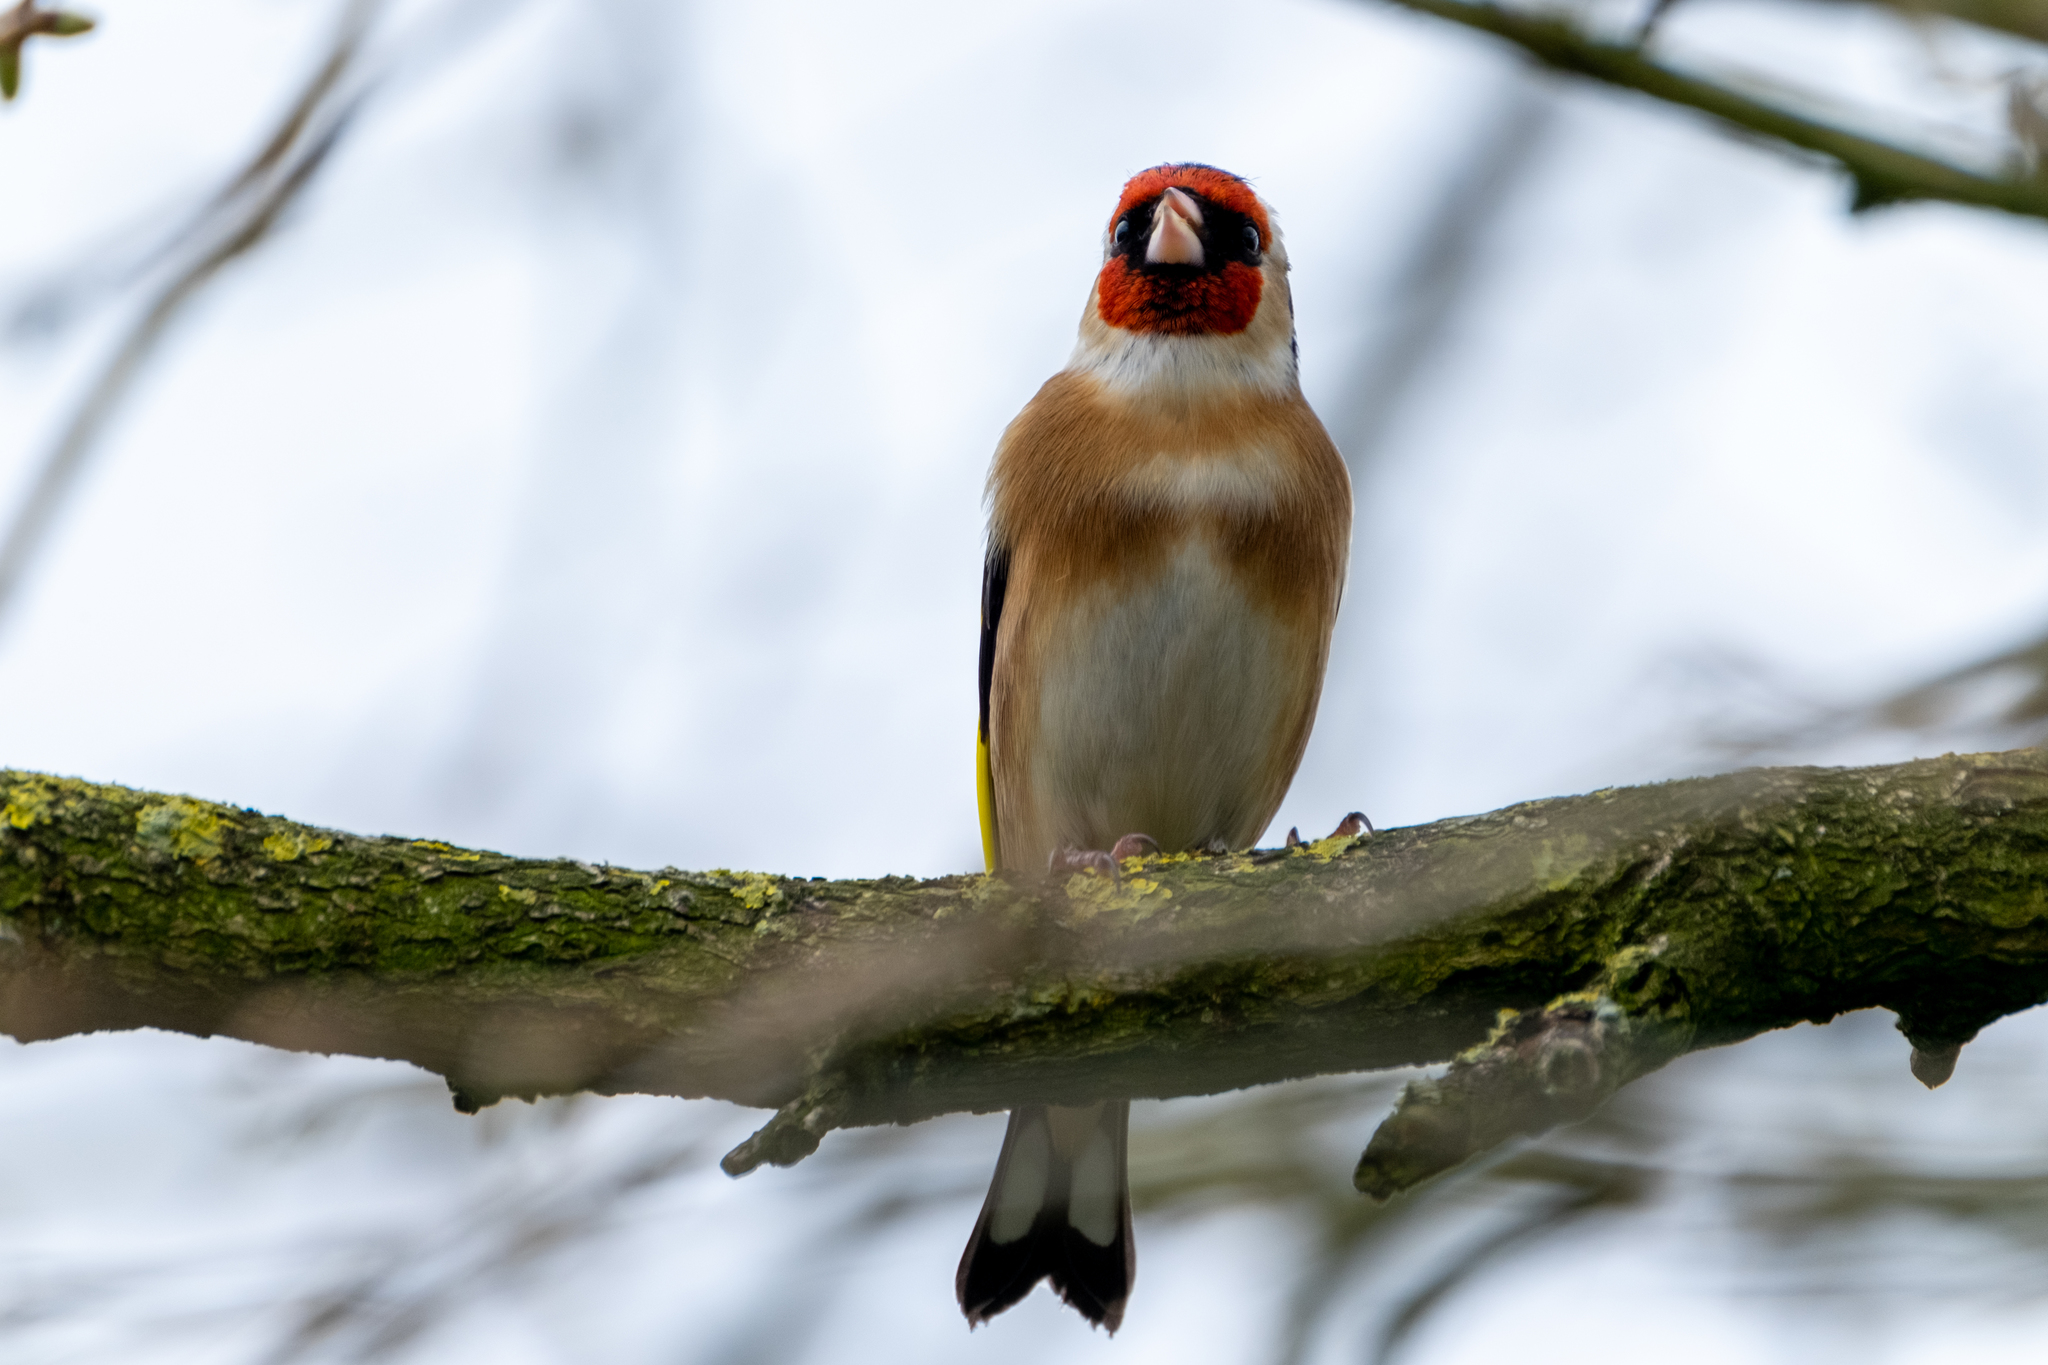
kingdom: Animalia
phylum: Chordata
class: Aves
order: Passeriformes
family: Fringillidae
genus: Carduelis
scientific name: Carduelis carduelis
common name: European goldfinch
